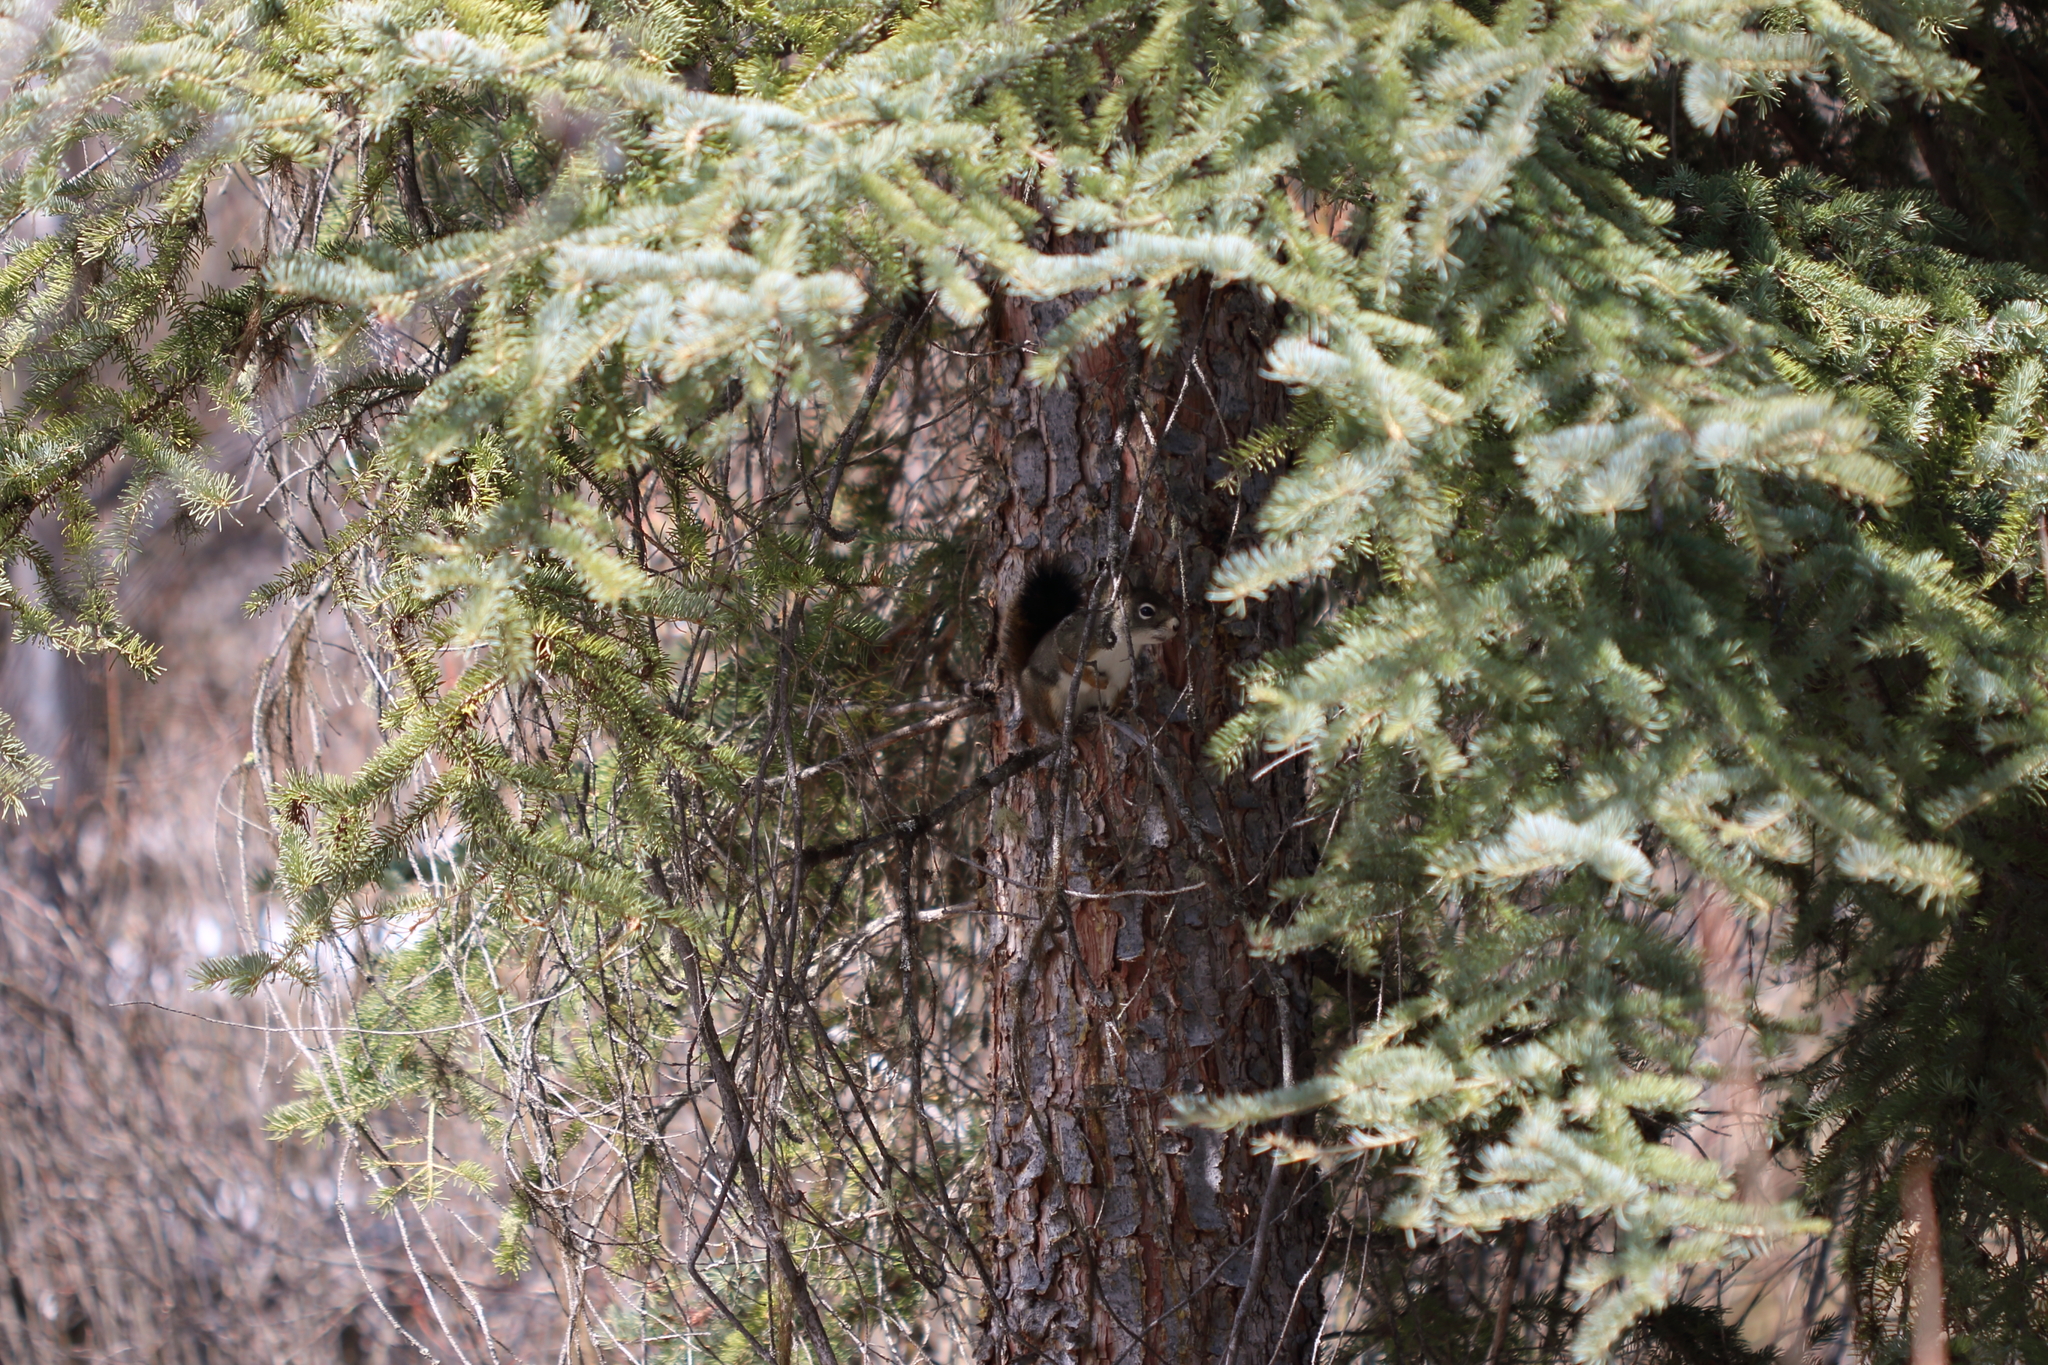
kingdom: Animalia
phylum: Chordata
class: Mammalia
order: Rodentia
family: Sciuridae
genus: Tamiasciurus
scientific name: Tamiasciurus hudsonicus
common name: Red squirrel
